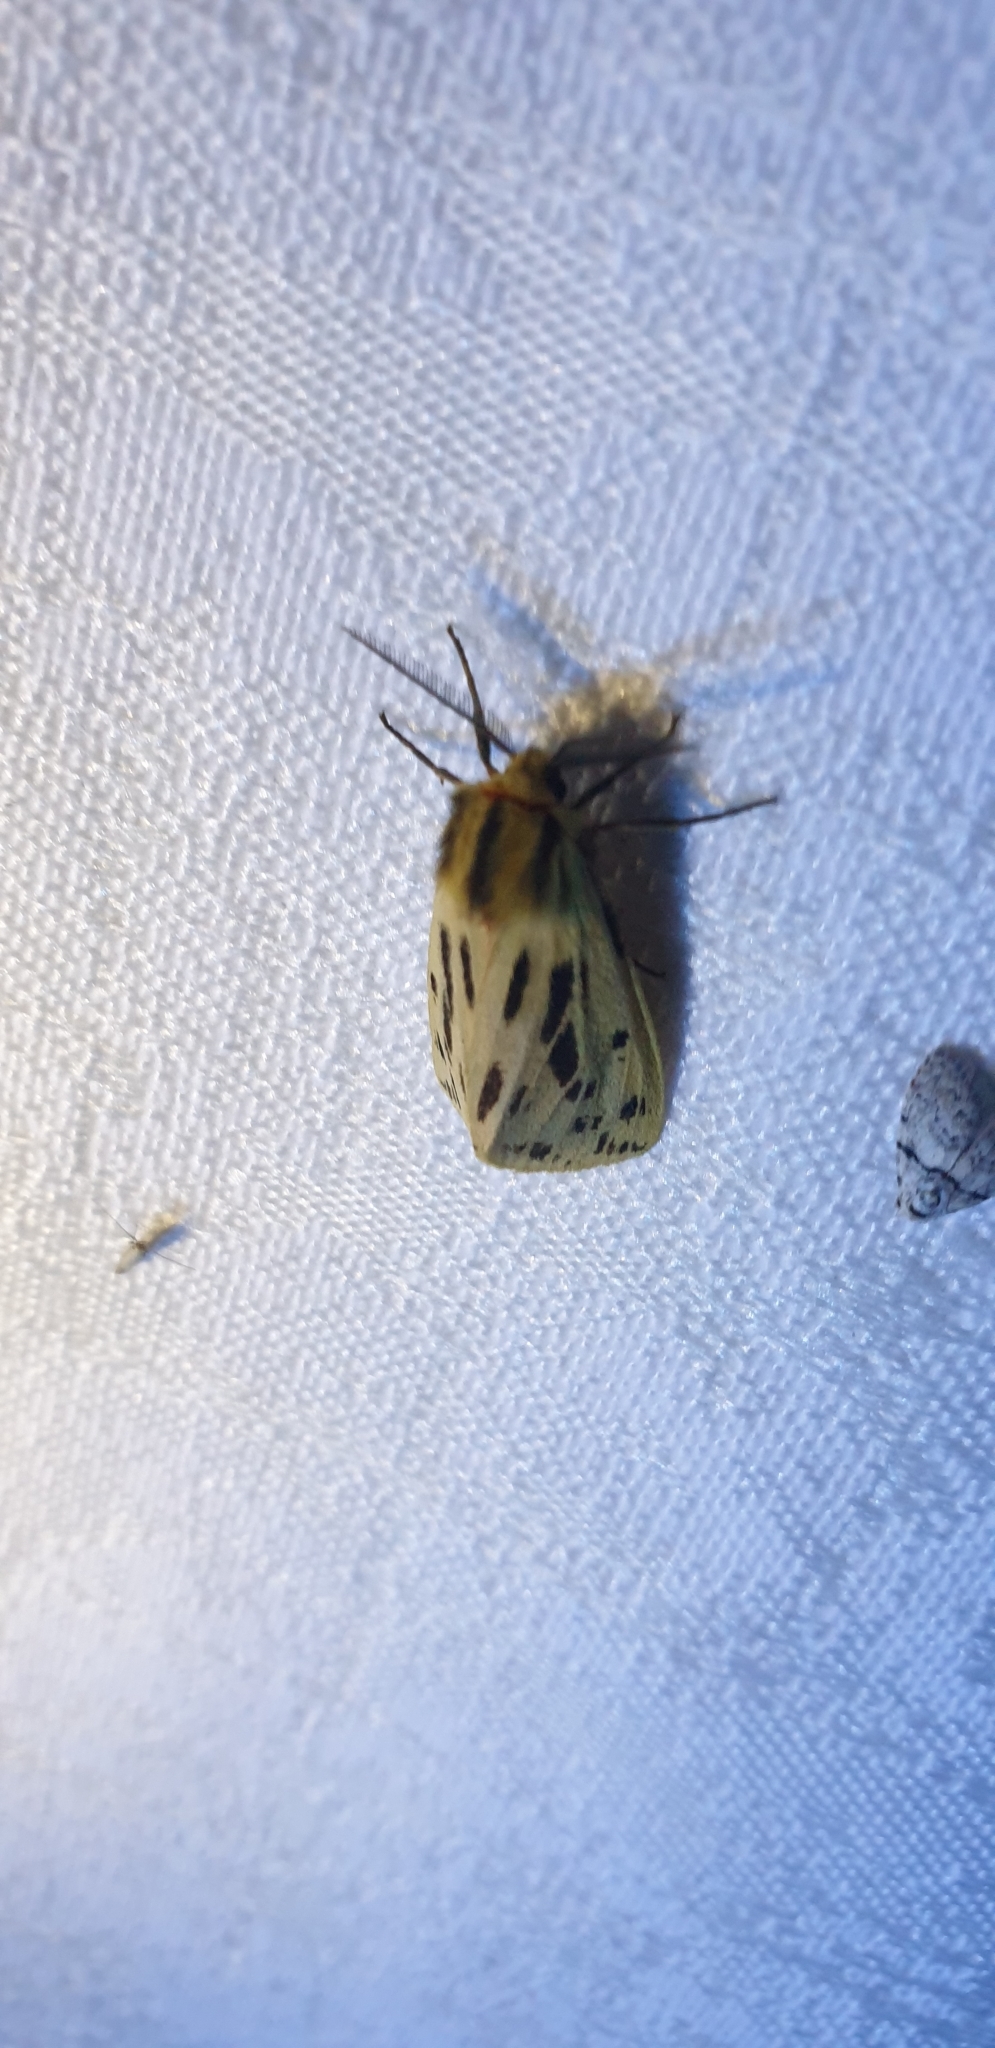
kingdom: Animalia
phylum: Arthropoda
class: Insecta
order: Lepidoptera
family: Erebidae
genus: Ardices
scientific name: Ardices curvata
